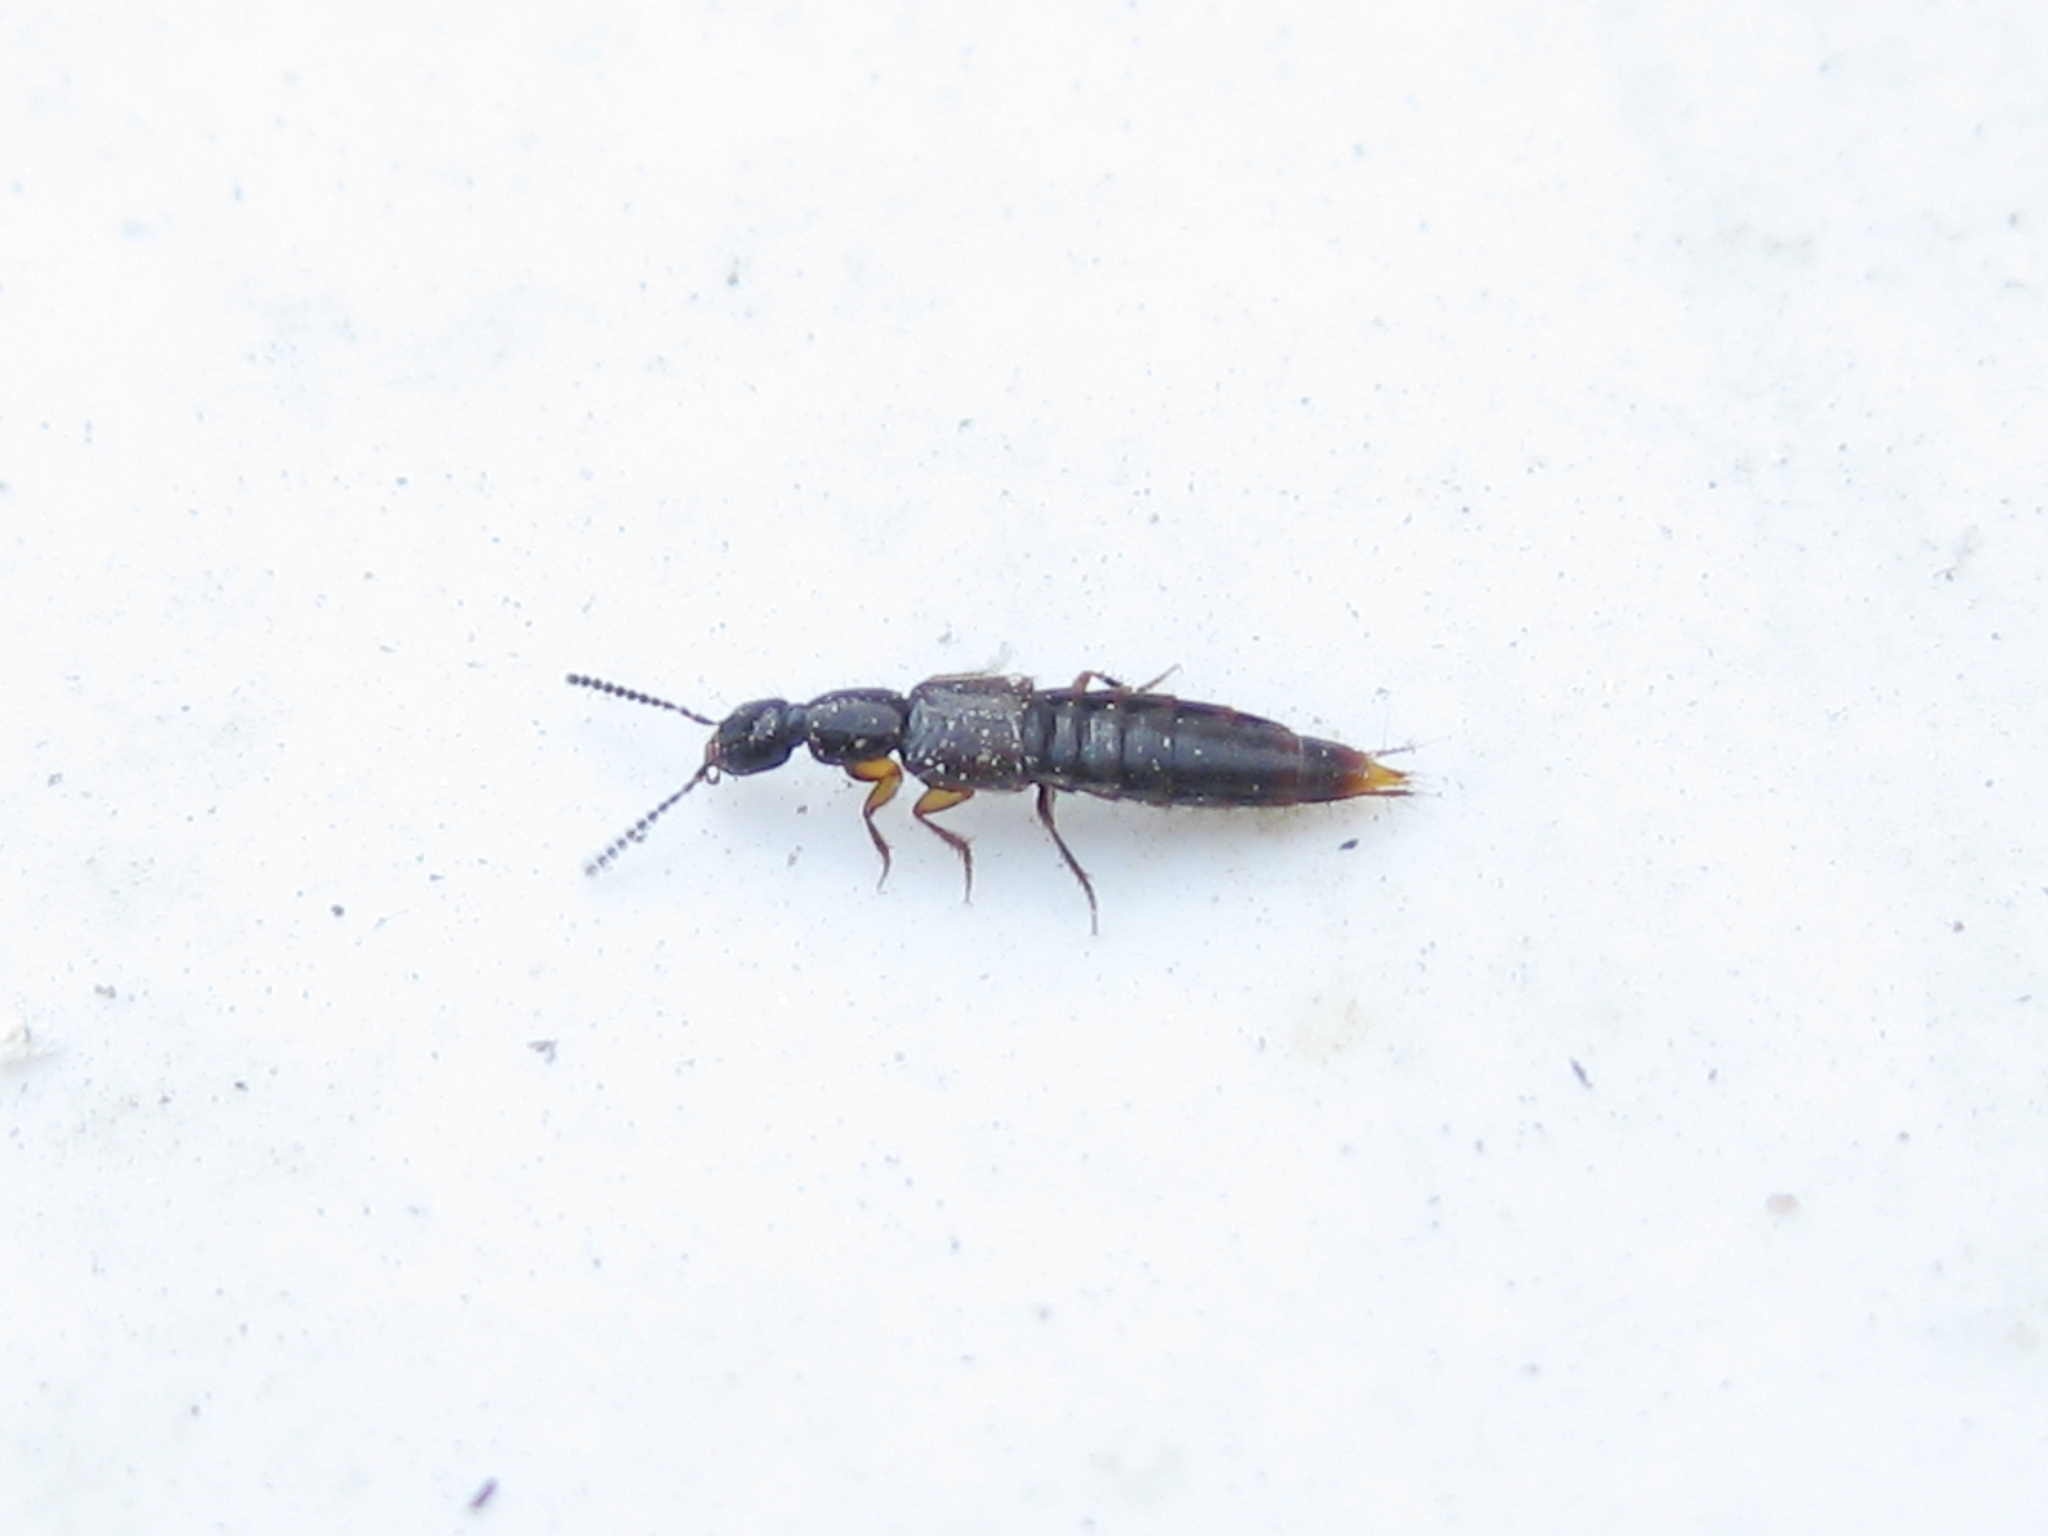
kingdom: Animalia
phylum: Arthropoda
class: Insecta
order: Coleoptera
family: Staphylinidae
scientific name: Staphylinidae
